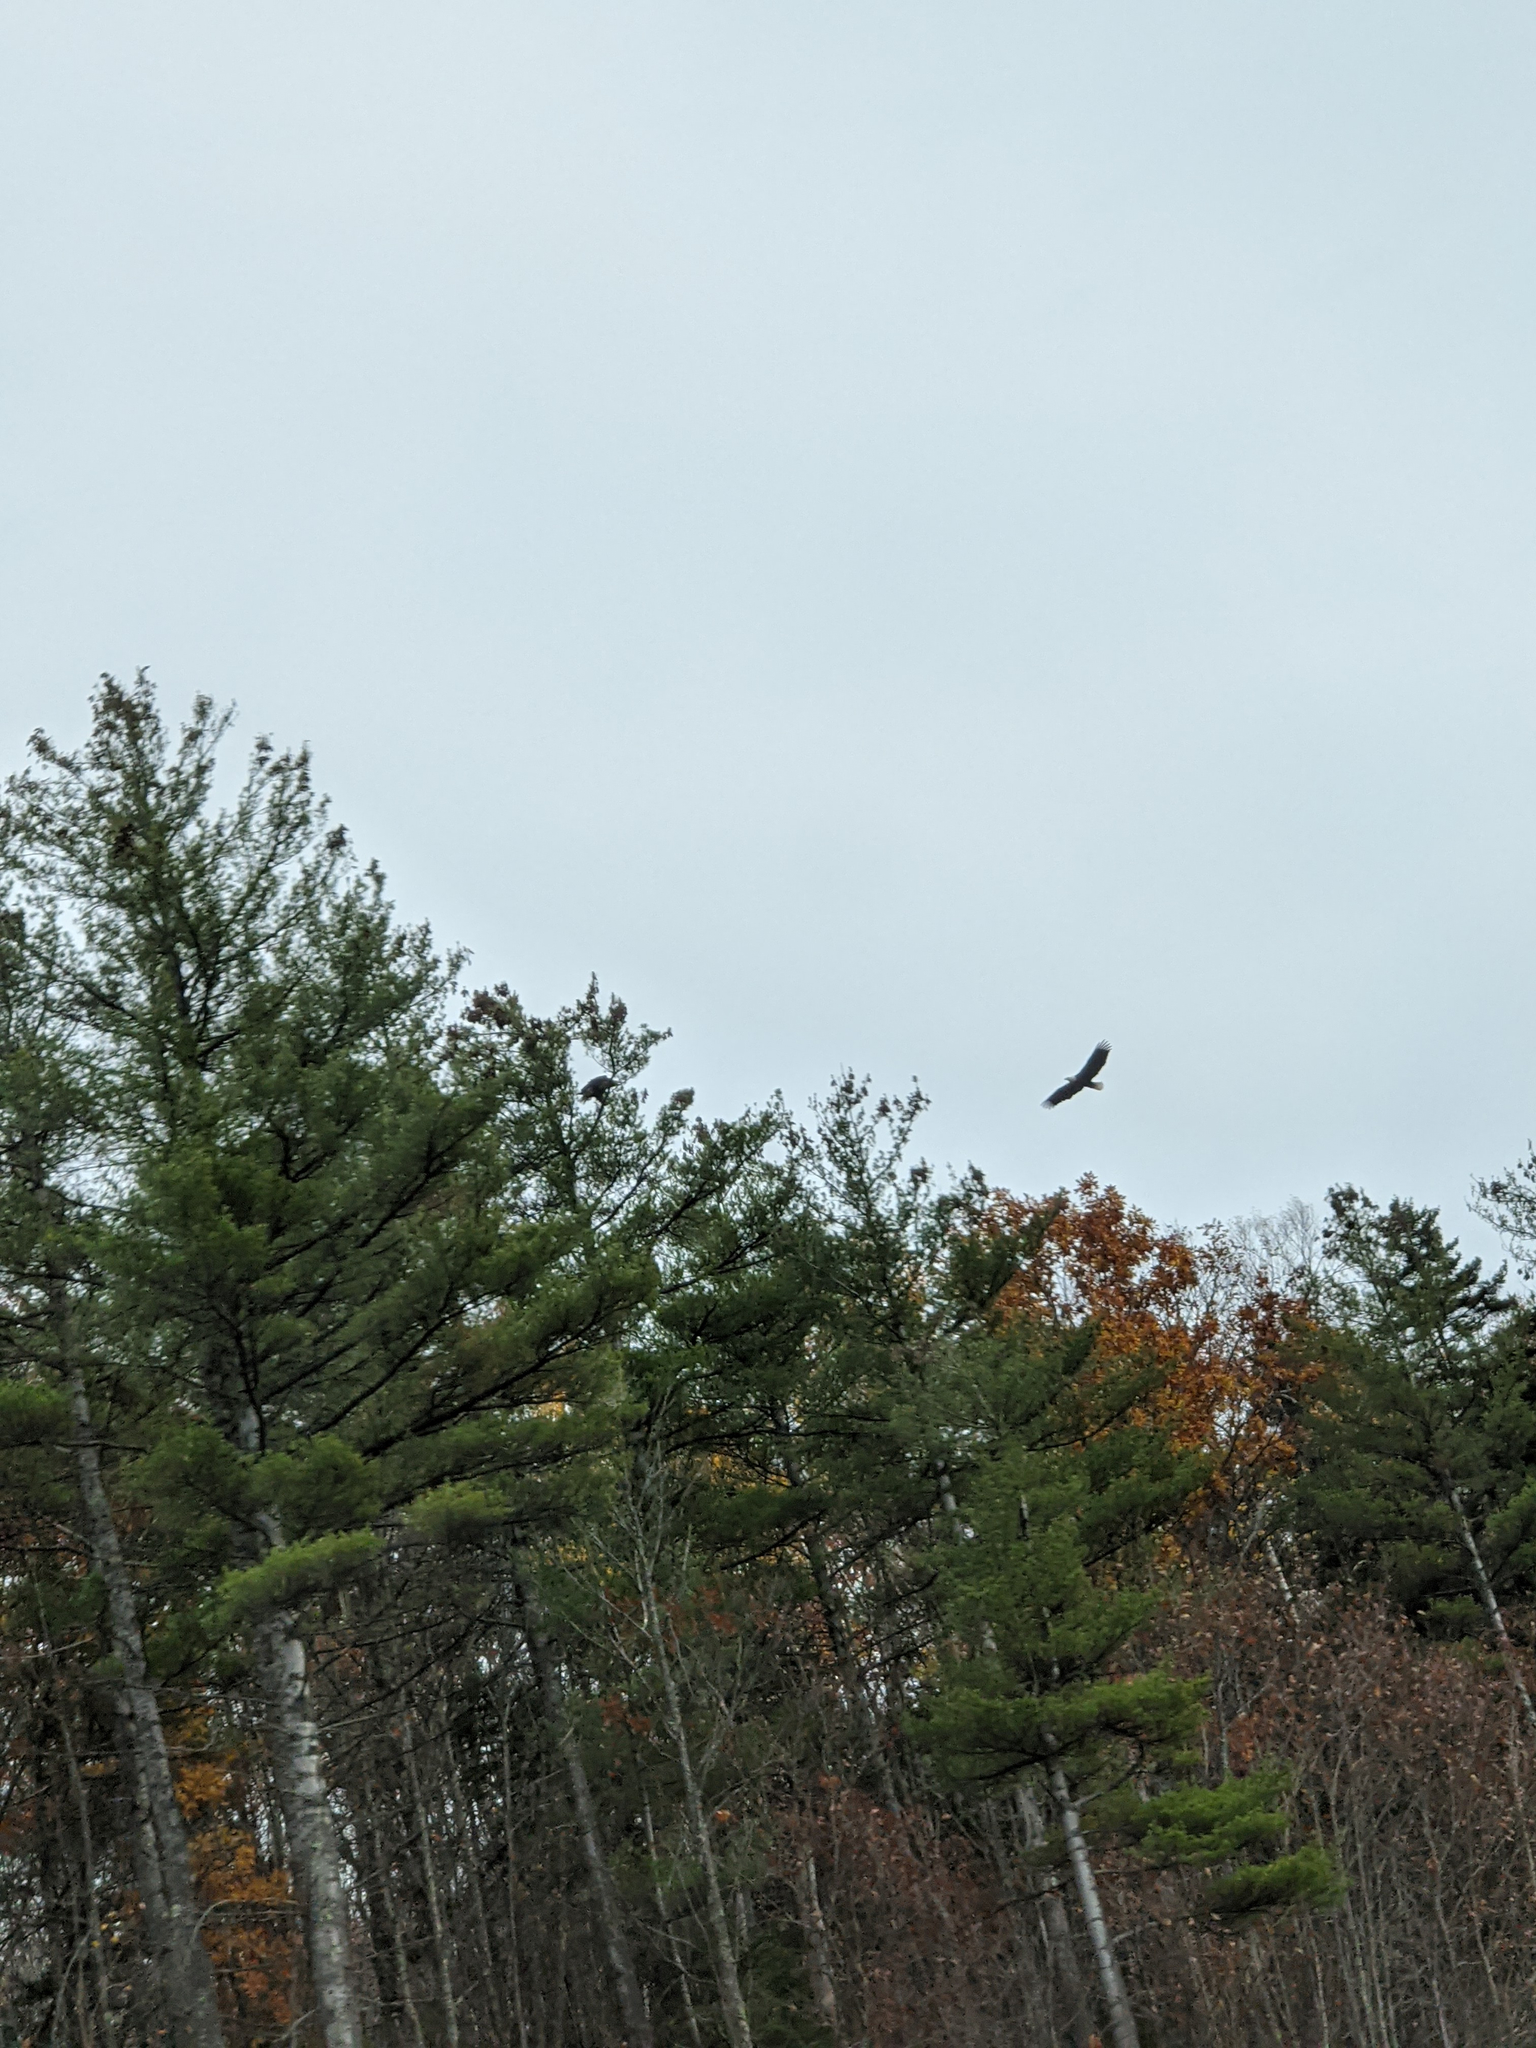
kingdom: Animalia
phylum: Chordata
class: Aves
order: Accipitriformes
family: Accipitridae
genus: Haliaeetus
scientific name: Haliaeetus leucocephalus
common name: Bald eagle
